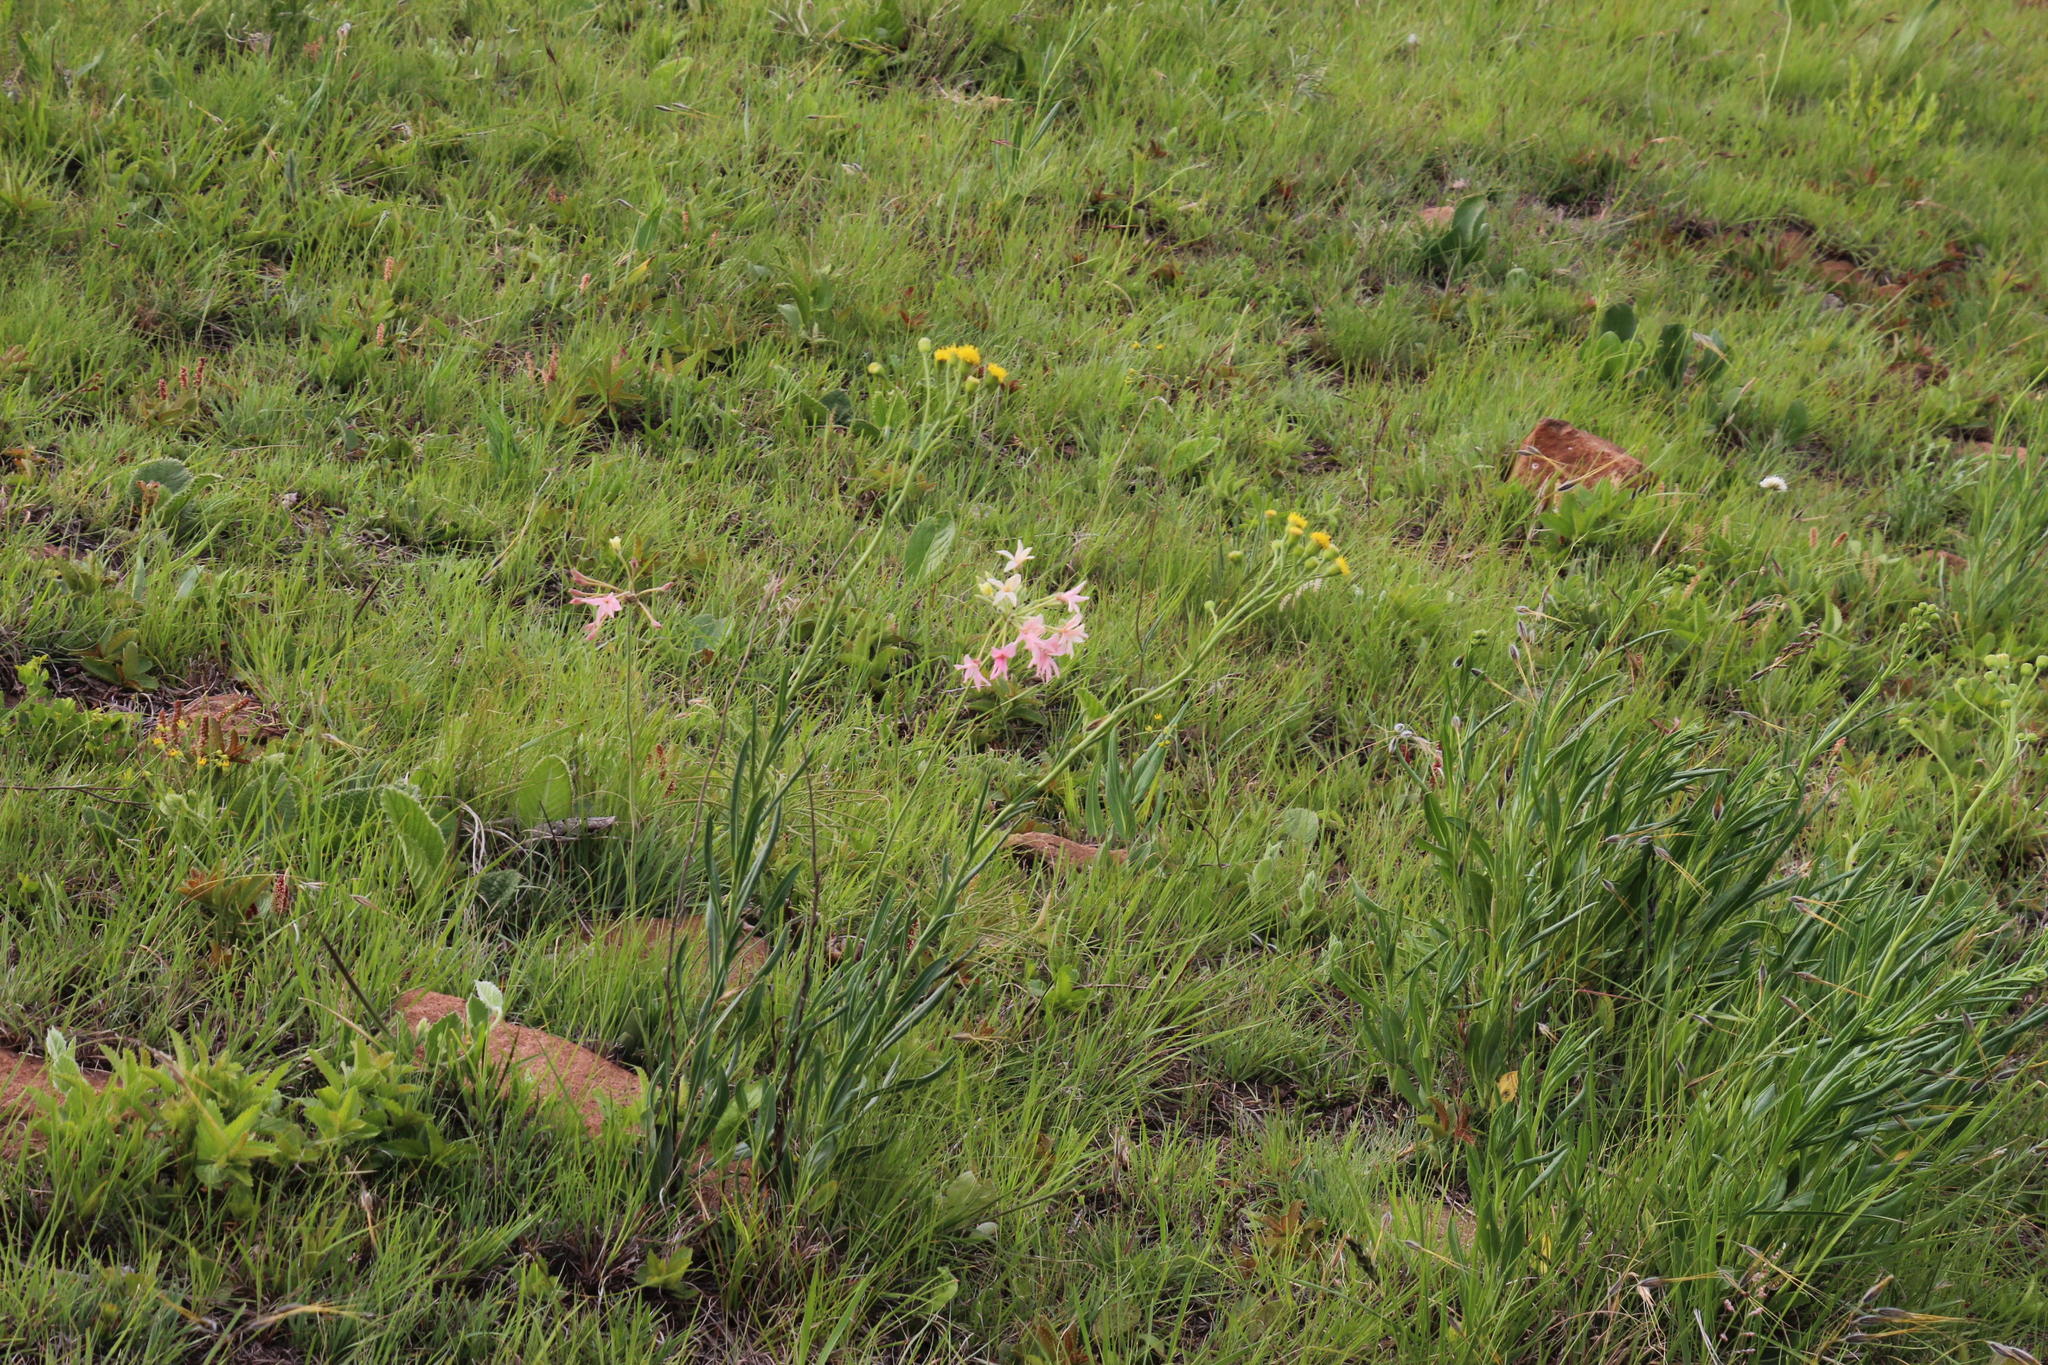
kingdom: Plantae
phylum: Tracheophyta
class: Magnoliopsida
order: Geraniales
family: Geraniaceae
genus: Pelargonium
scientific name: Pelargonium luridum
